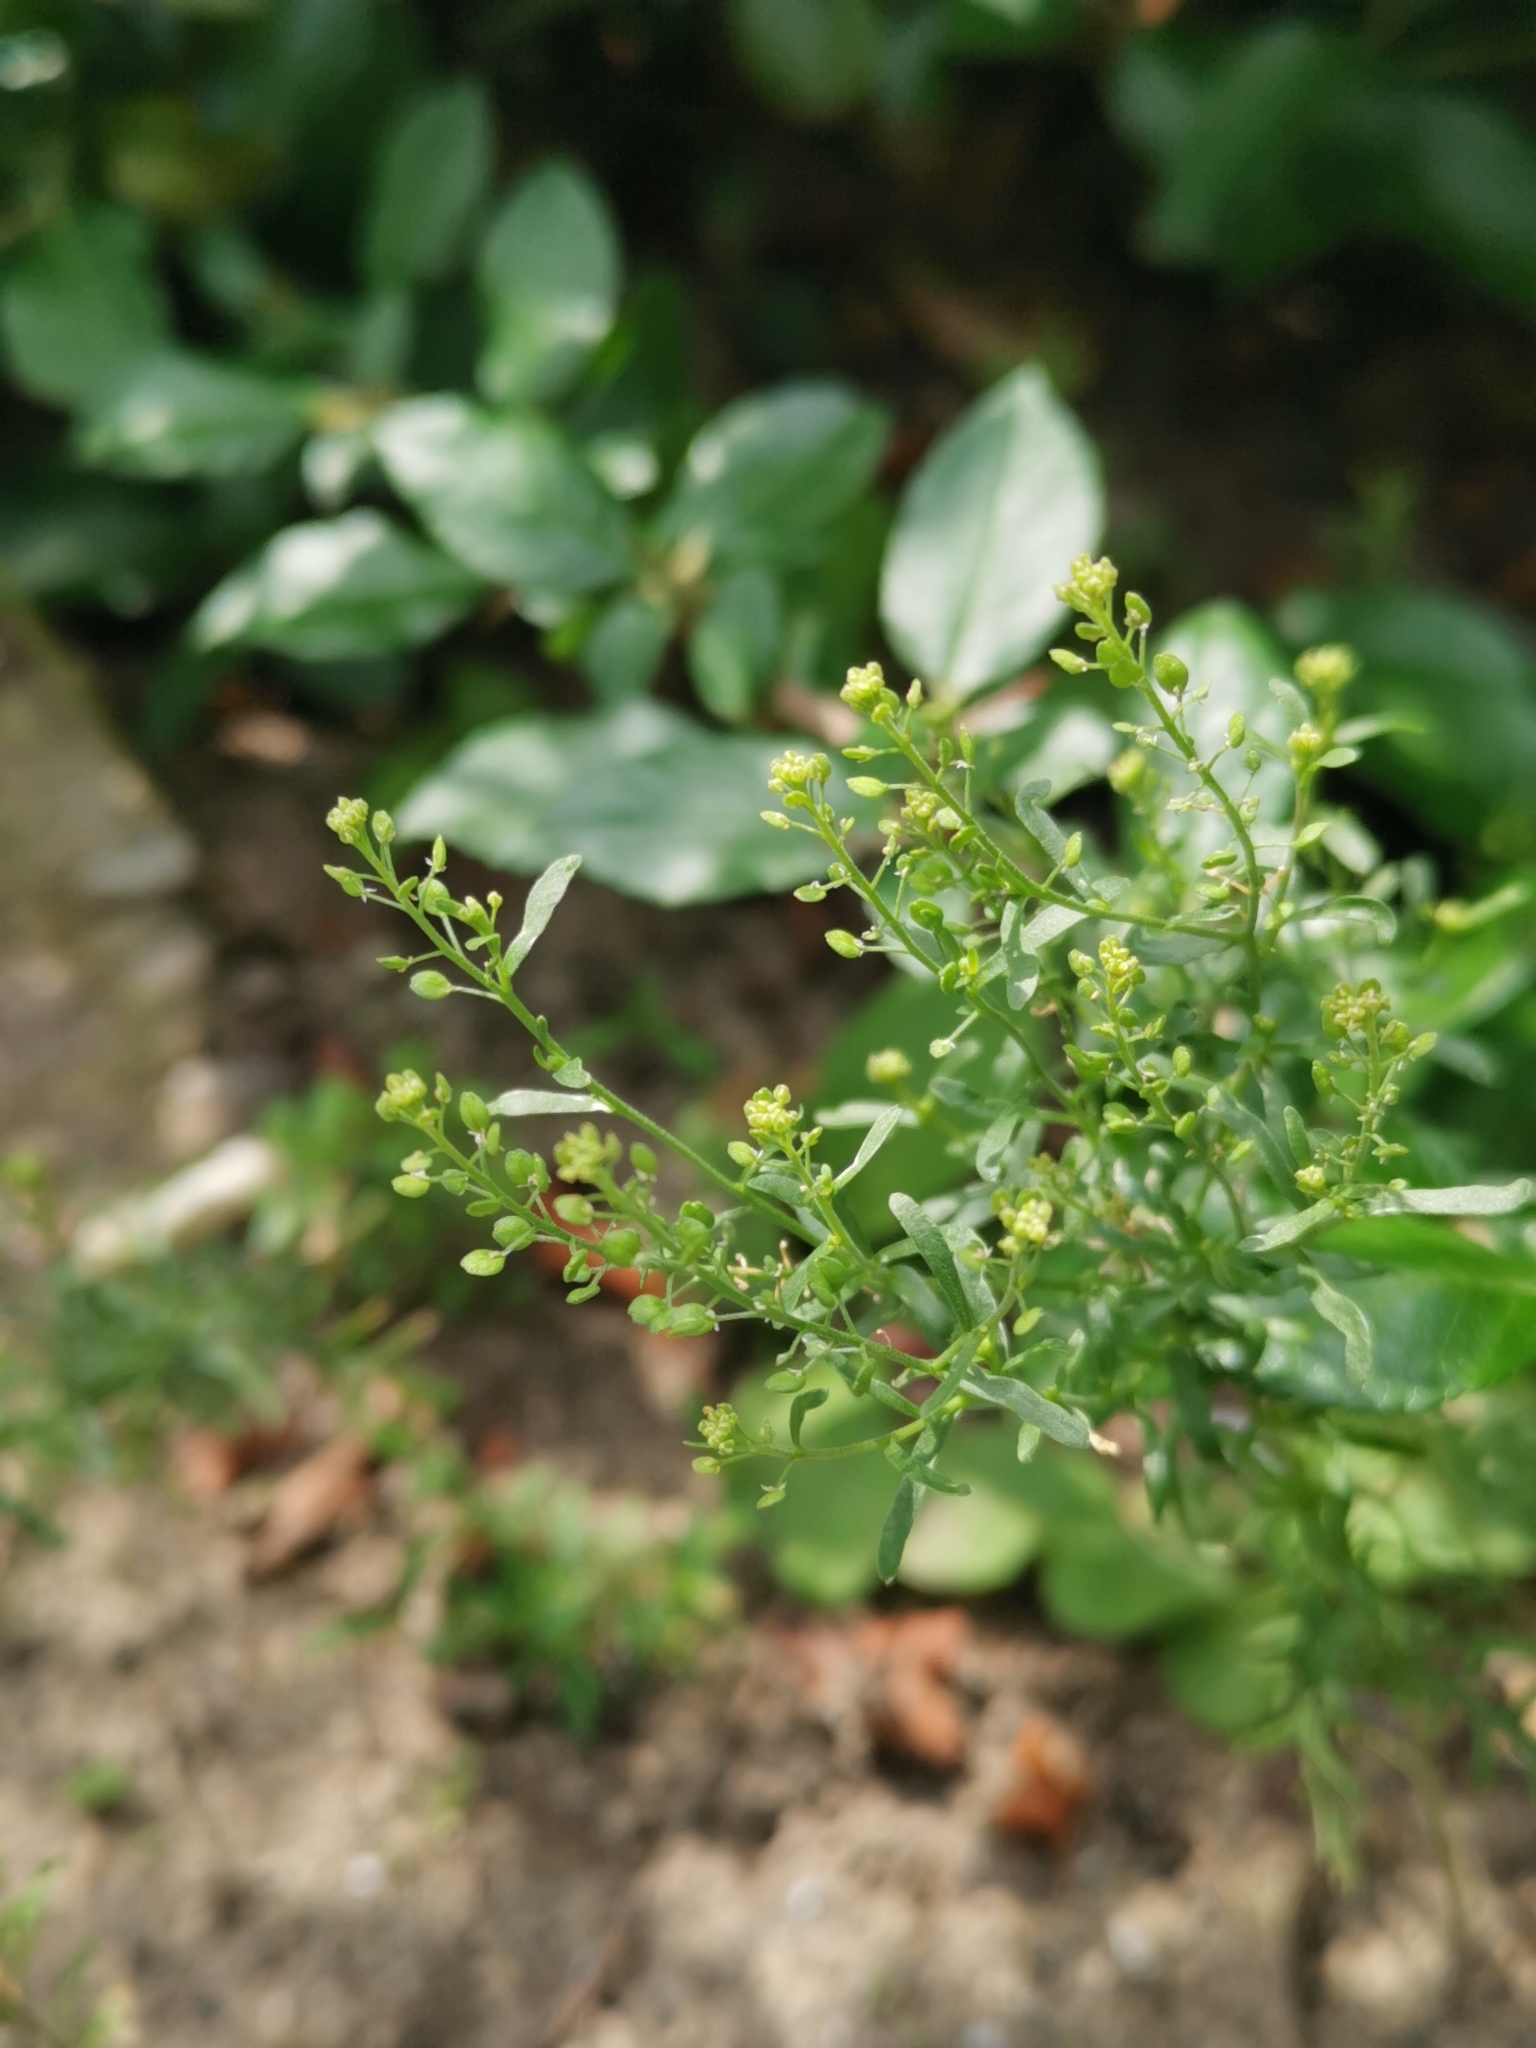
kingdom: Plantae
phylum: Tracheophyta
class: Magnoliopsida
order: Brassicales
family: Brassicaceae
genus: Lepidium
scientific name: Lepidium ruderale
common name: Narrow-leaved pepperwort
